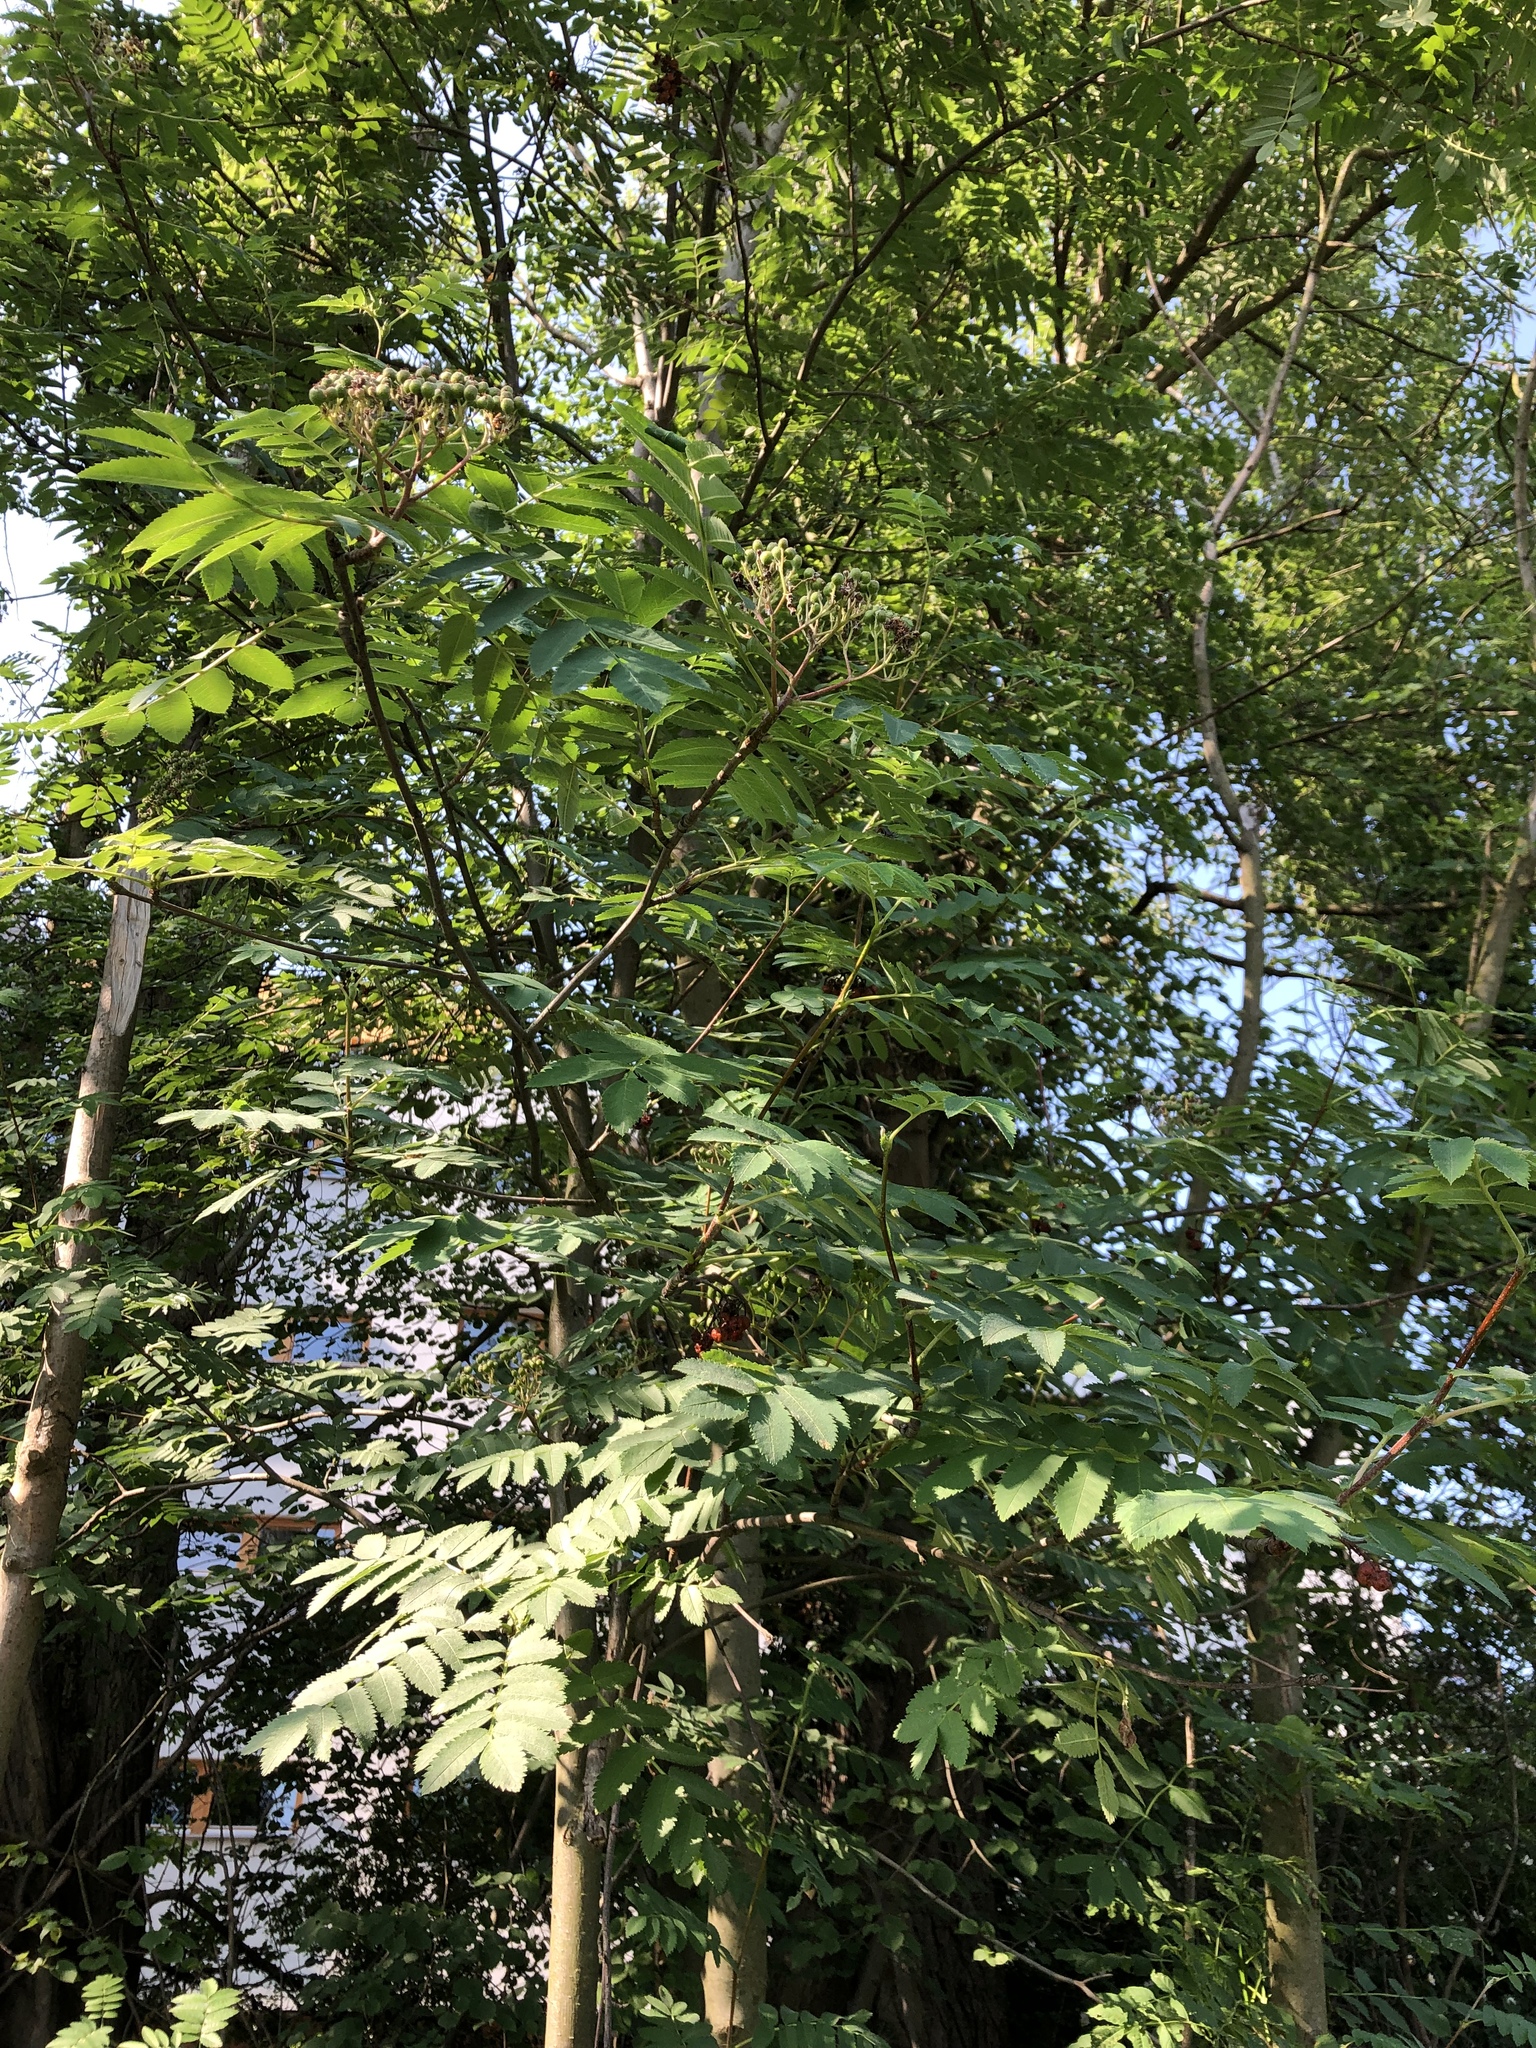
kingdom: Plantae
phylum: Tracheophyta
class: Magnoliopsida
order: Rosales
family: Rosaceae
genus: Sorbus
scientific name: Sorbus aucuparia
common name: Rowan
